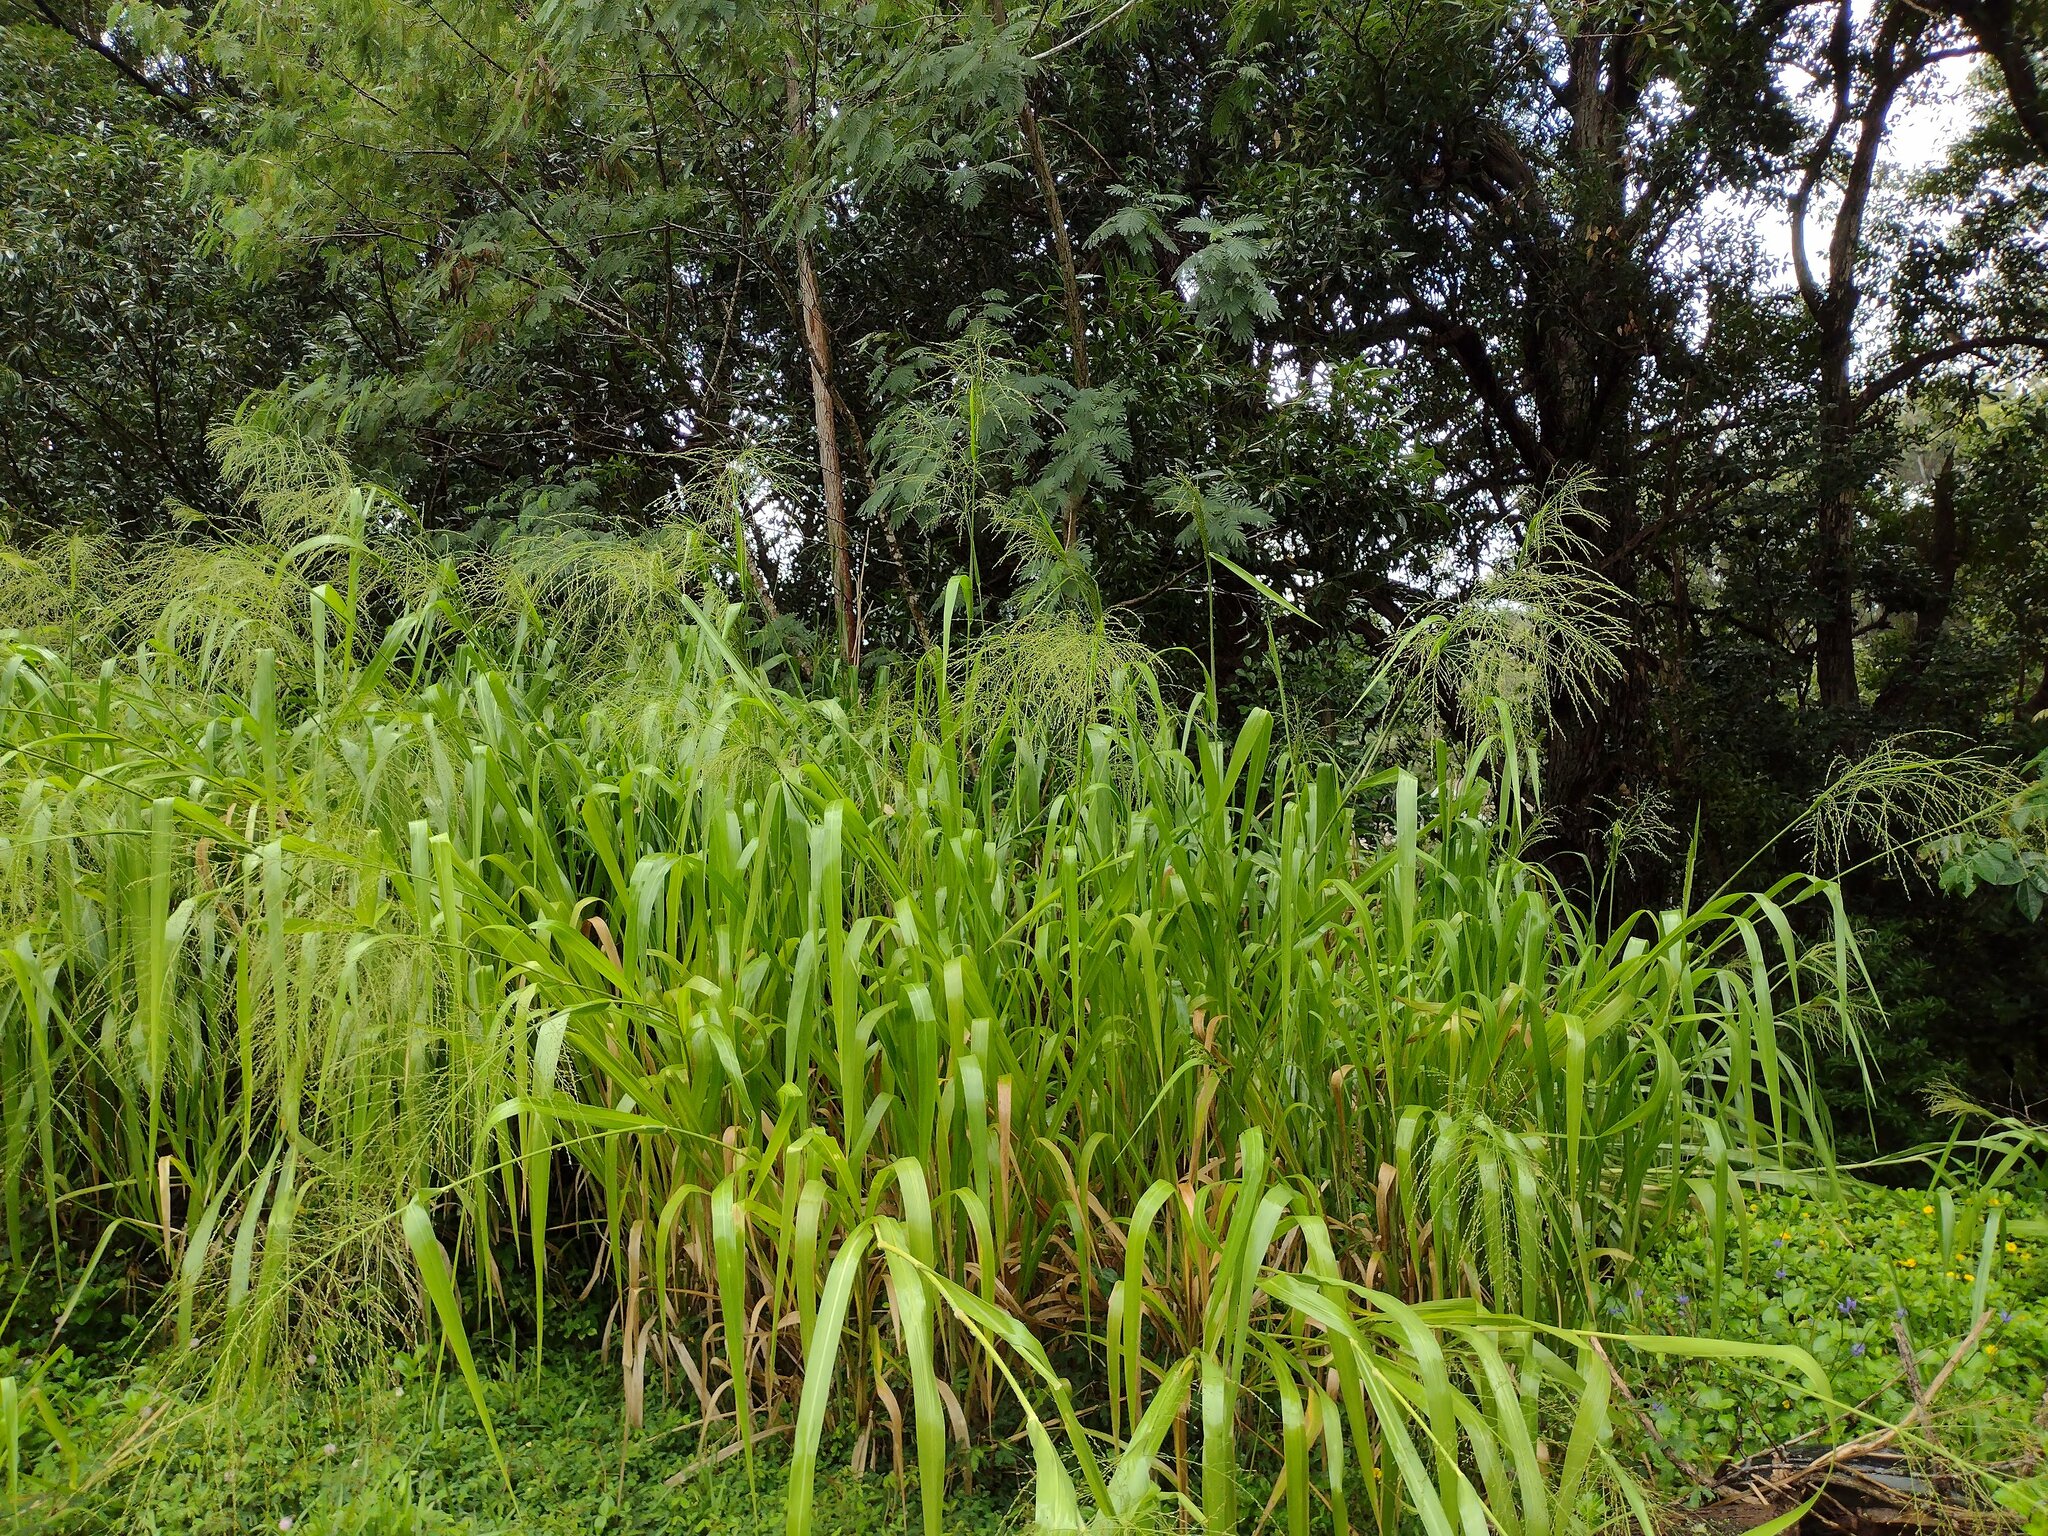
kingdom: Plantae
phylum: Tracheophyta
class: Liliopsida
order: Poales
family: Poaceae
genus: Megathyrsus
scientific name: Megathyrsus maximus
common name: Guineagrass
